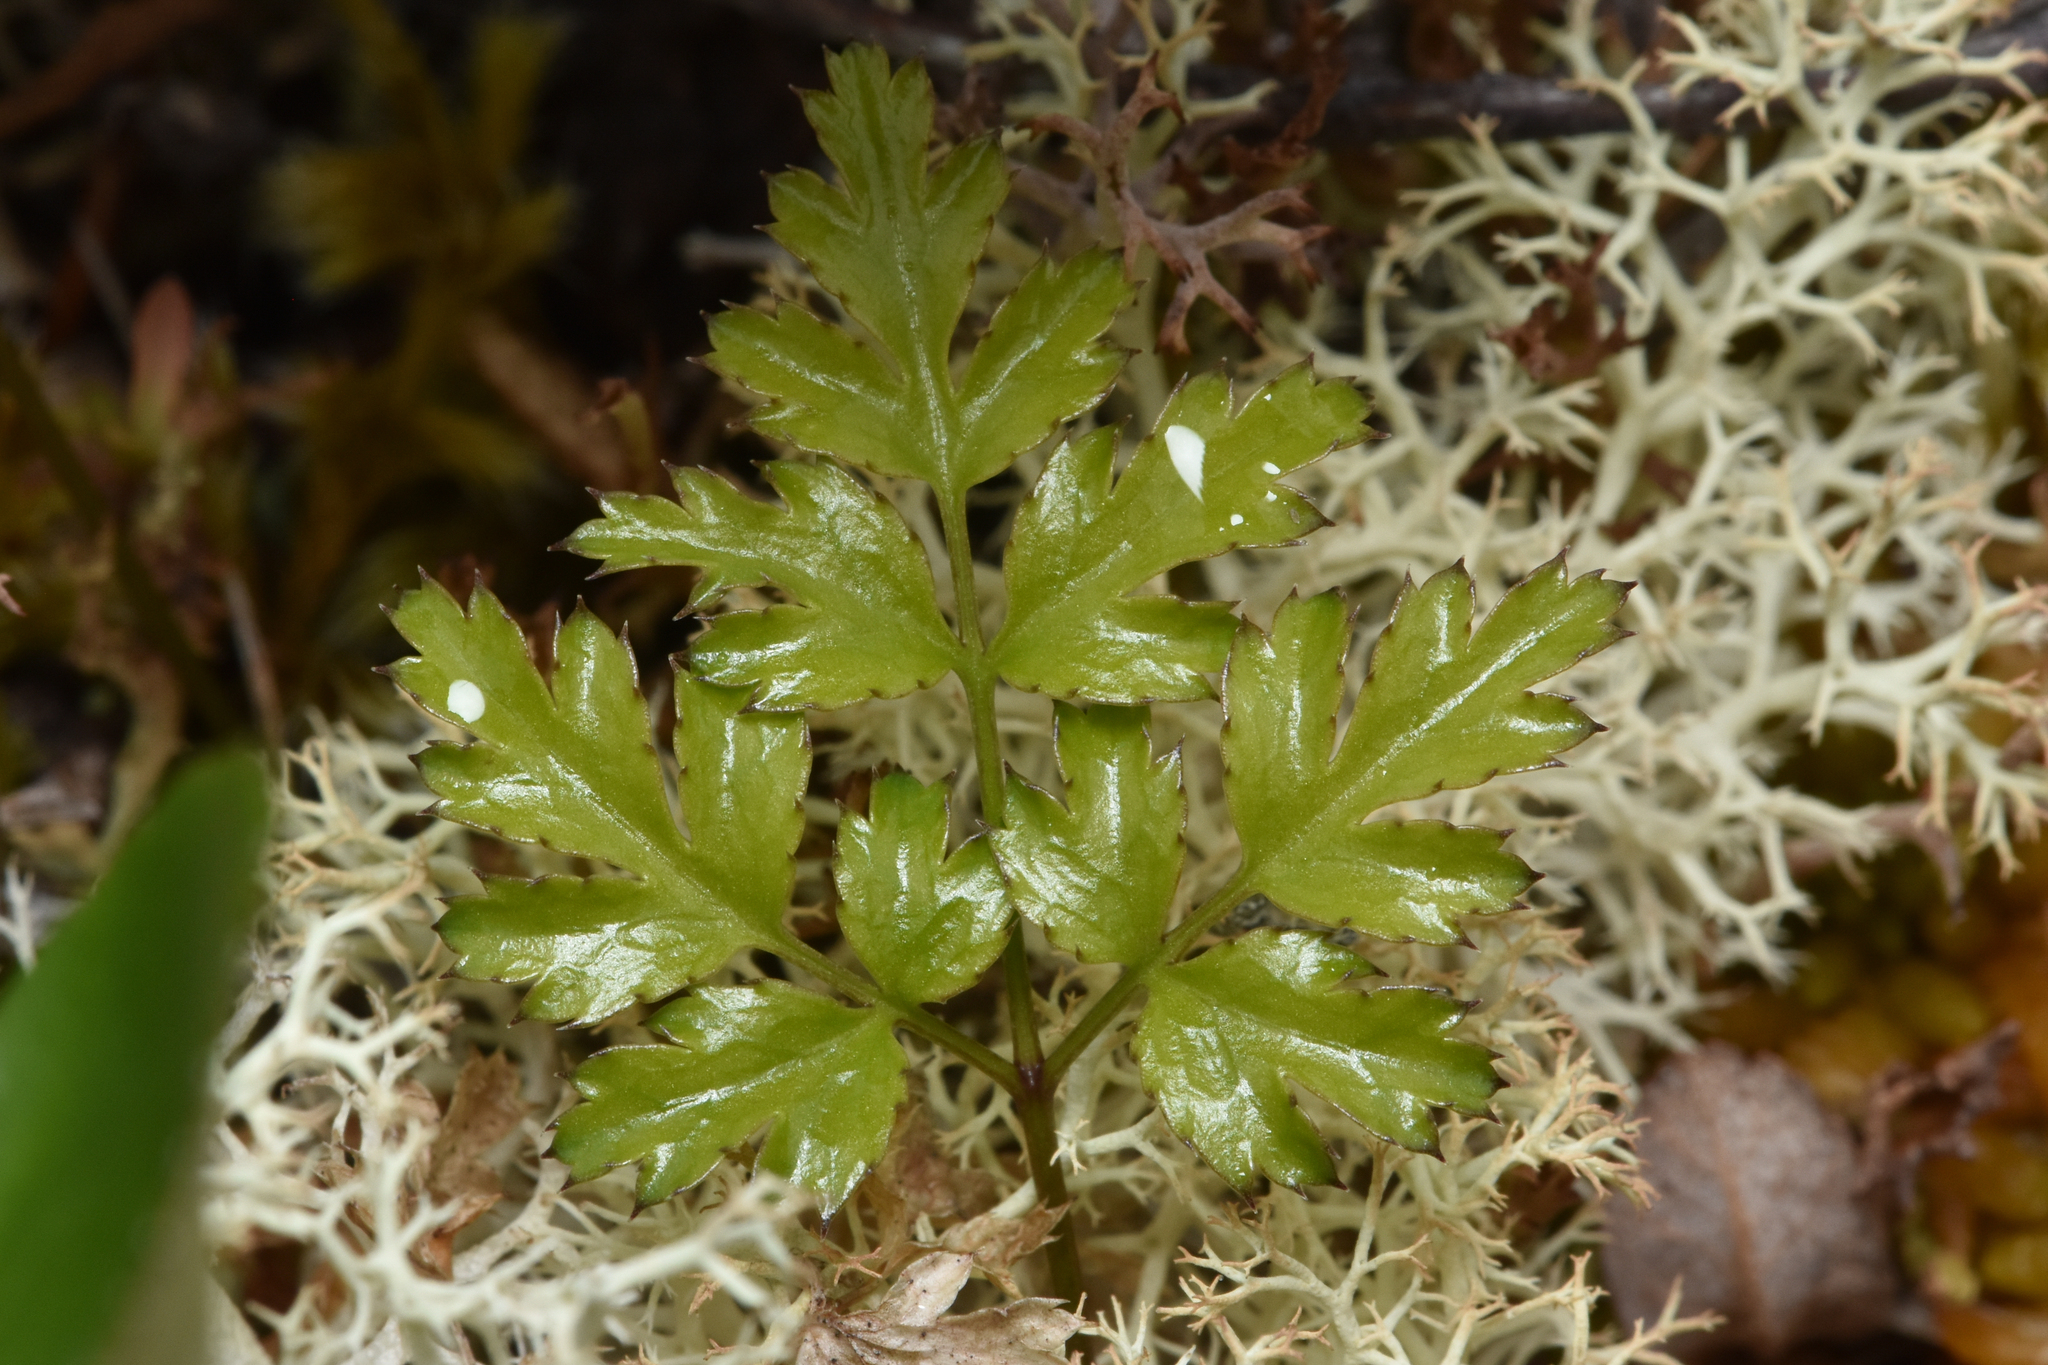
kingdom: Plantae
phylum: Tracheophyta
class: Magnoliopsida
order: Ranunculales
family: Ranunculaceae
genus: Coptis
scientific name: Coptis aspleniifolia
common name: Fern-leaved goldthread
